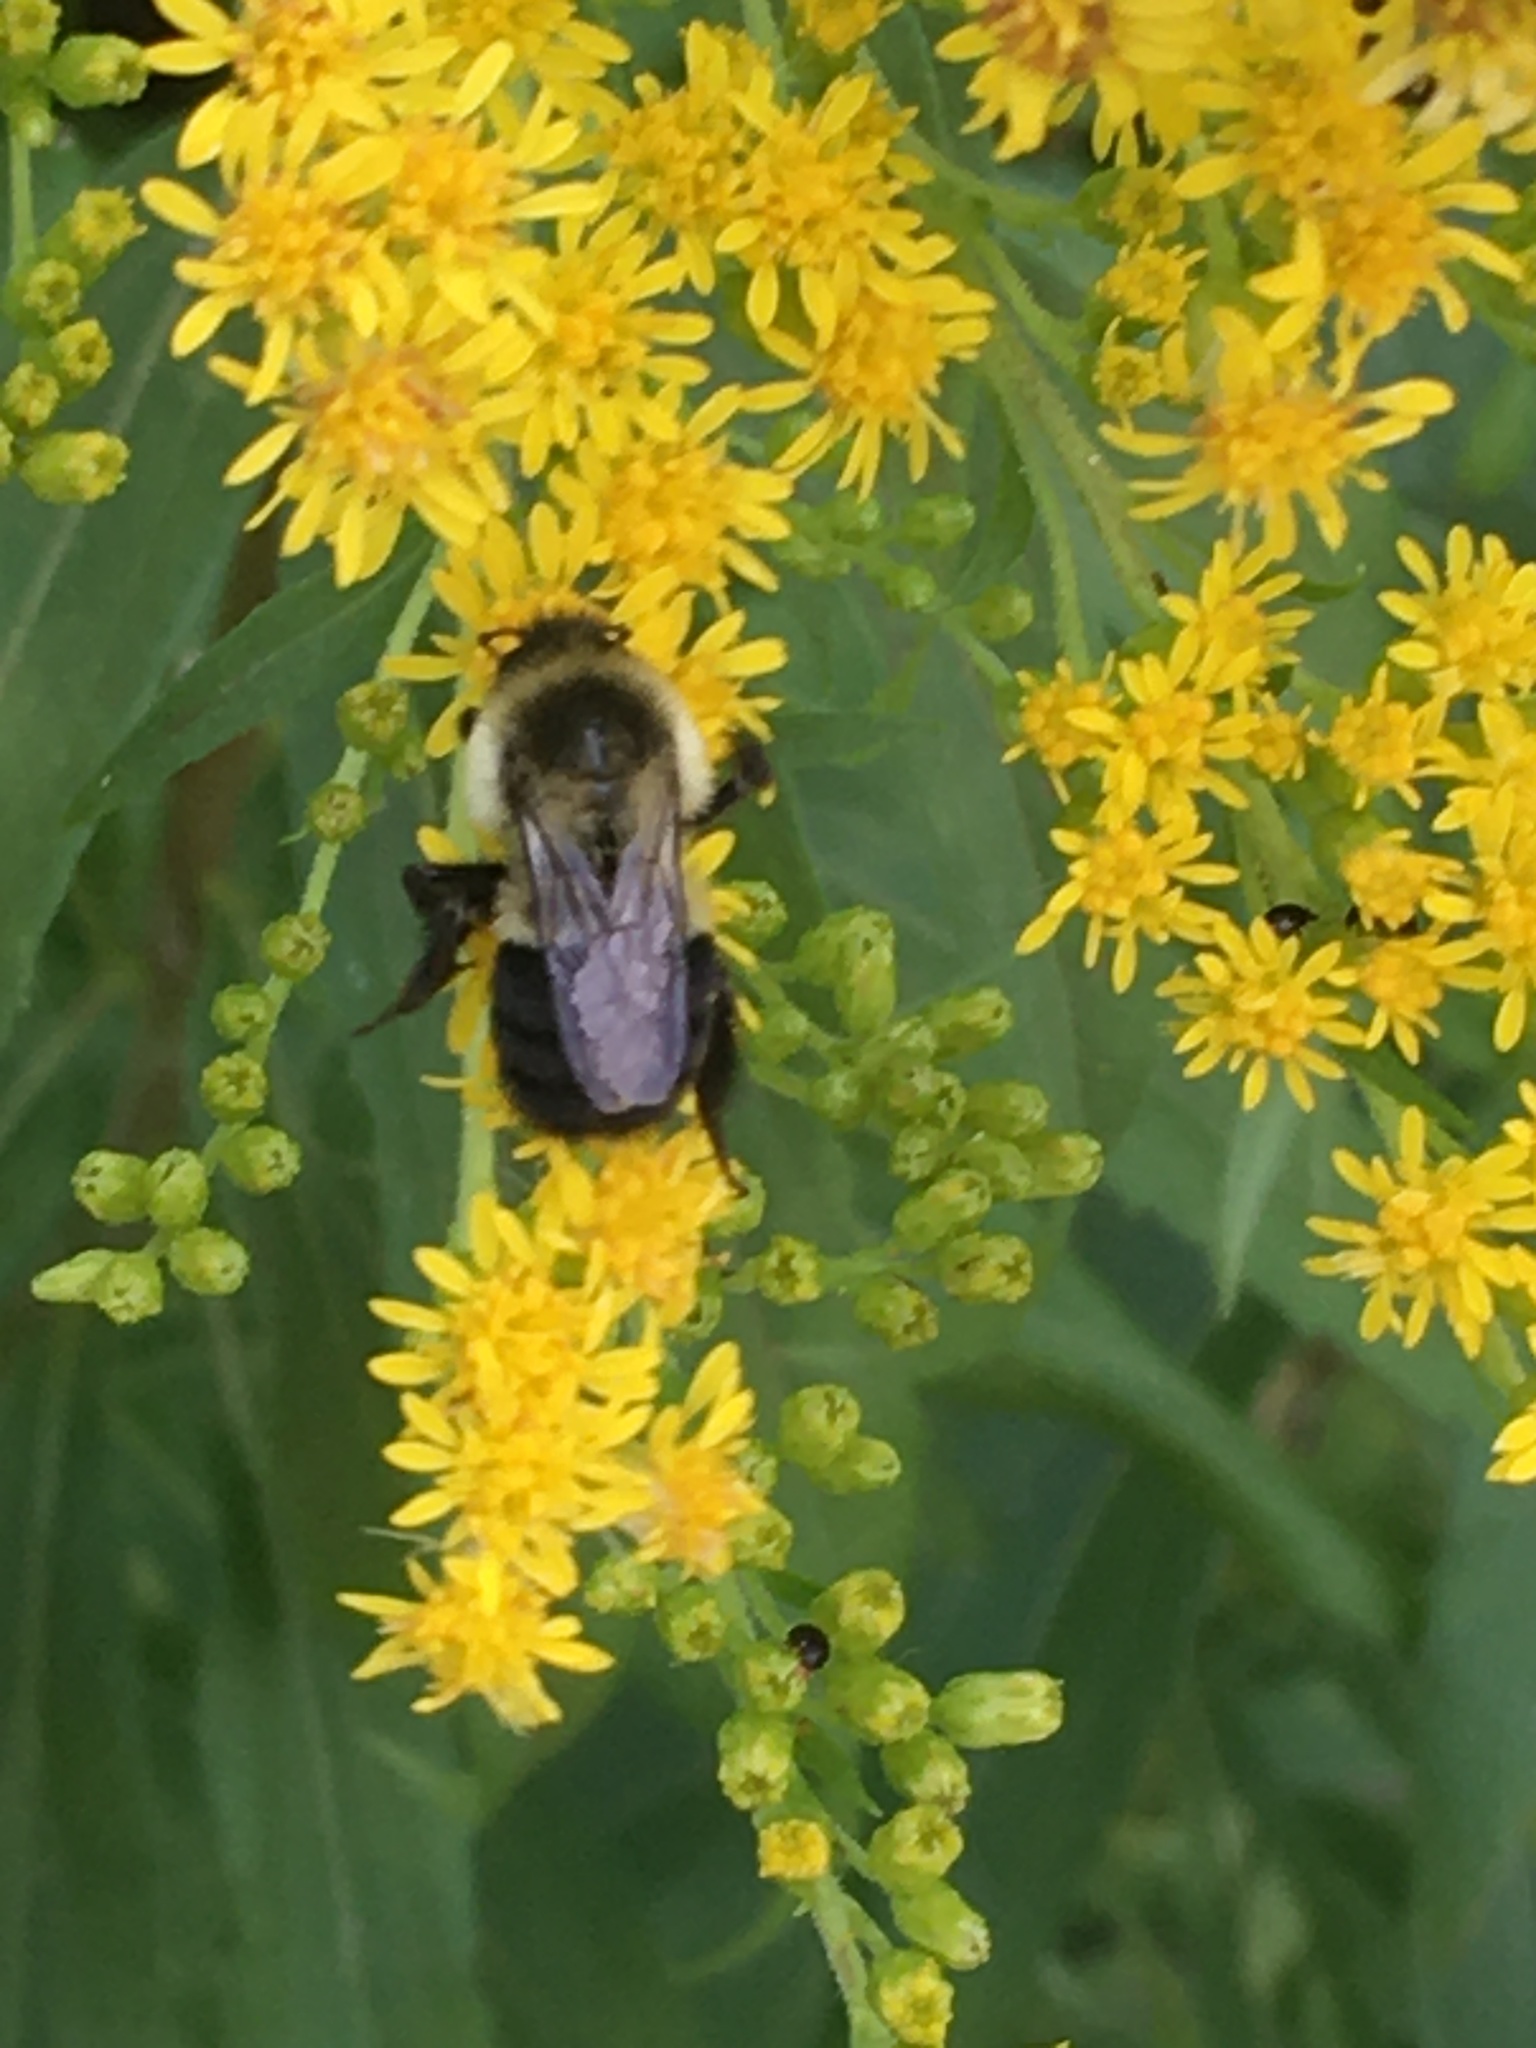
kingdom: Animalia
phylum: Arthropoda
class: Insecta
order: Hymenoptera
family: Apidae
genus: Bombus
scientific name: Bombus impatiens
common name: Common eastern bumble bee
